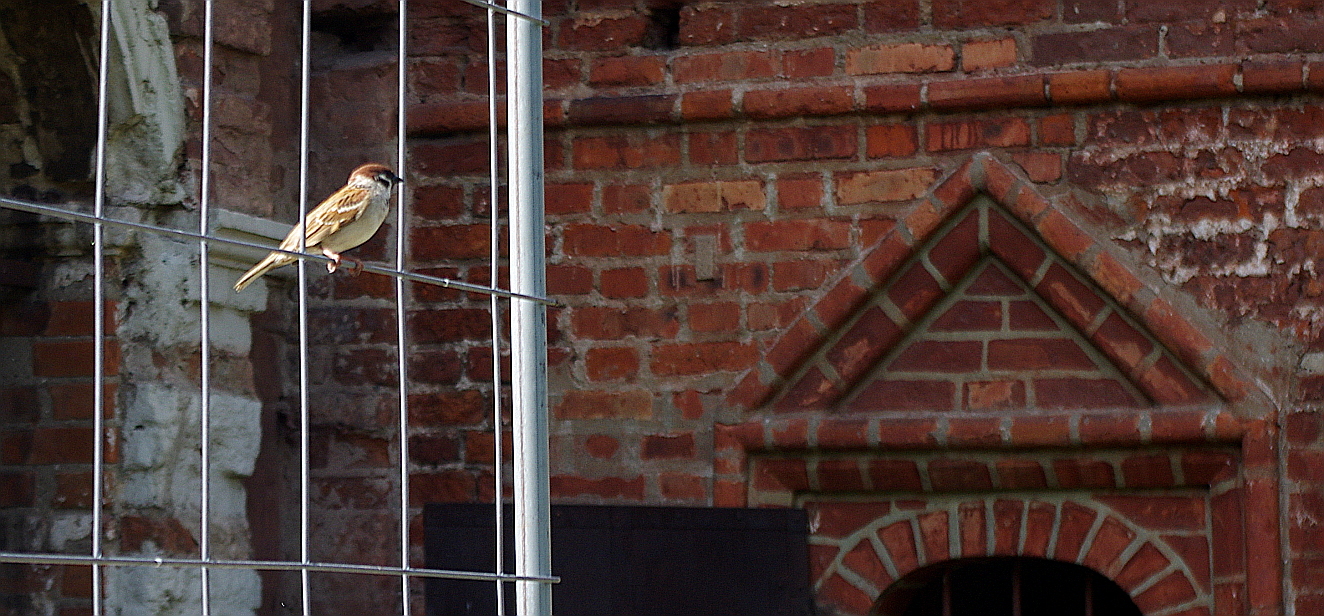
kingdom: Animalia
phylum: Chordata
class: Aves
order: Passeriformes
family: Passeridae
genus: Passer
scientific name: Passer montanus
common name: Eurasian tree sparrow
